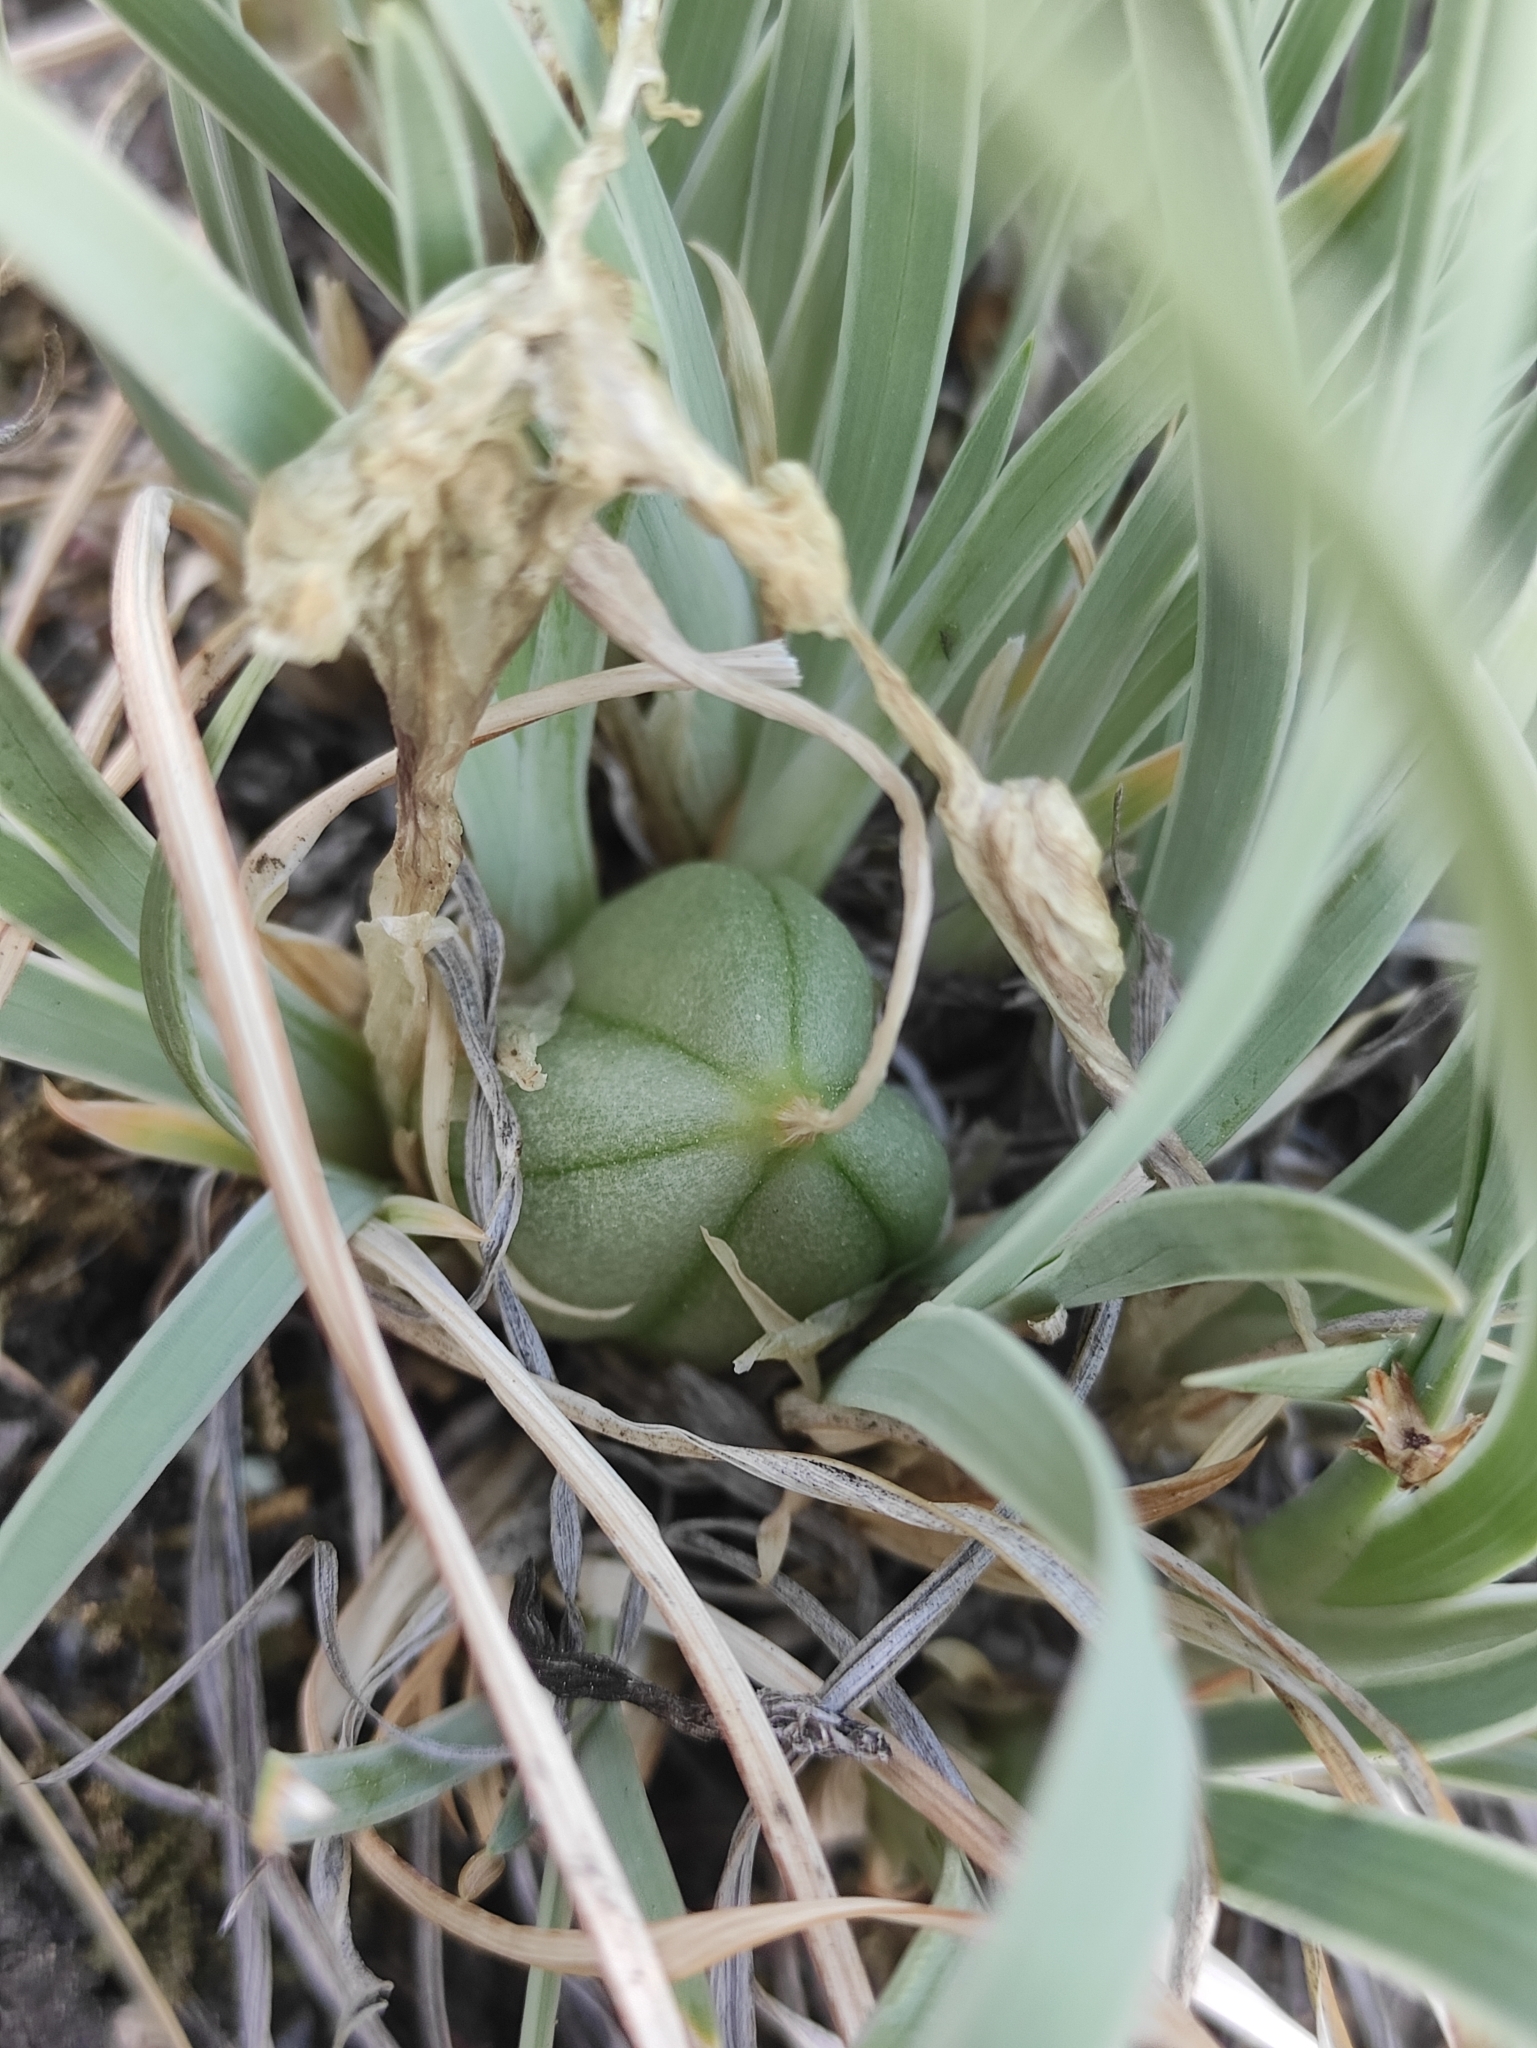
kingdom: Plantae
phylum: Tracheophyta
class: Liliopsida
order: Asparagales
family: Iridaceae
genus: Iris
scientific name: Iris potaninii
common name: Curl-sheath iris
